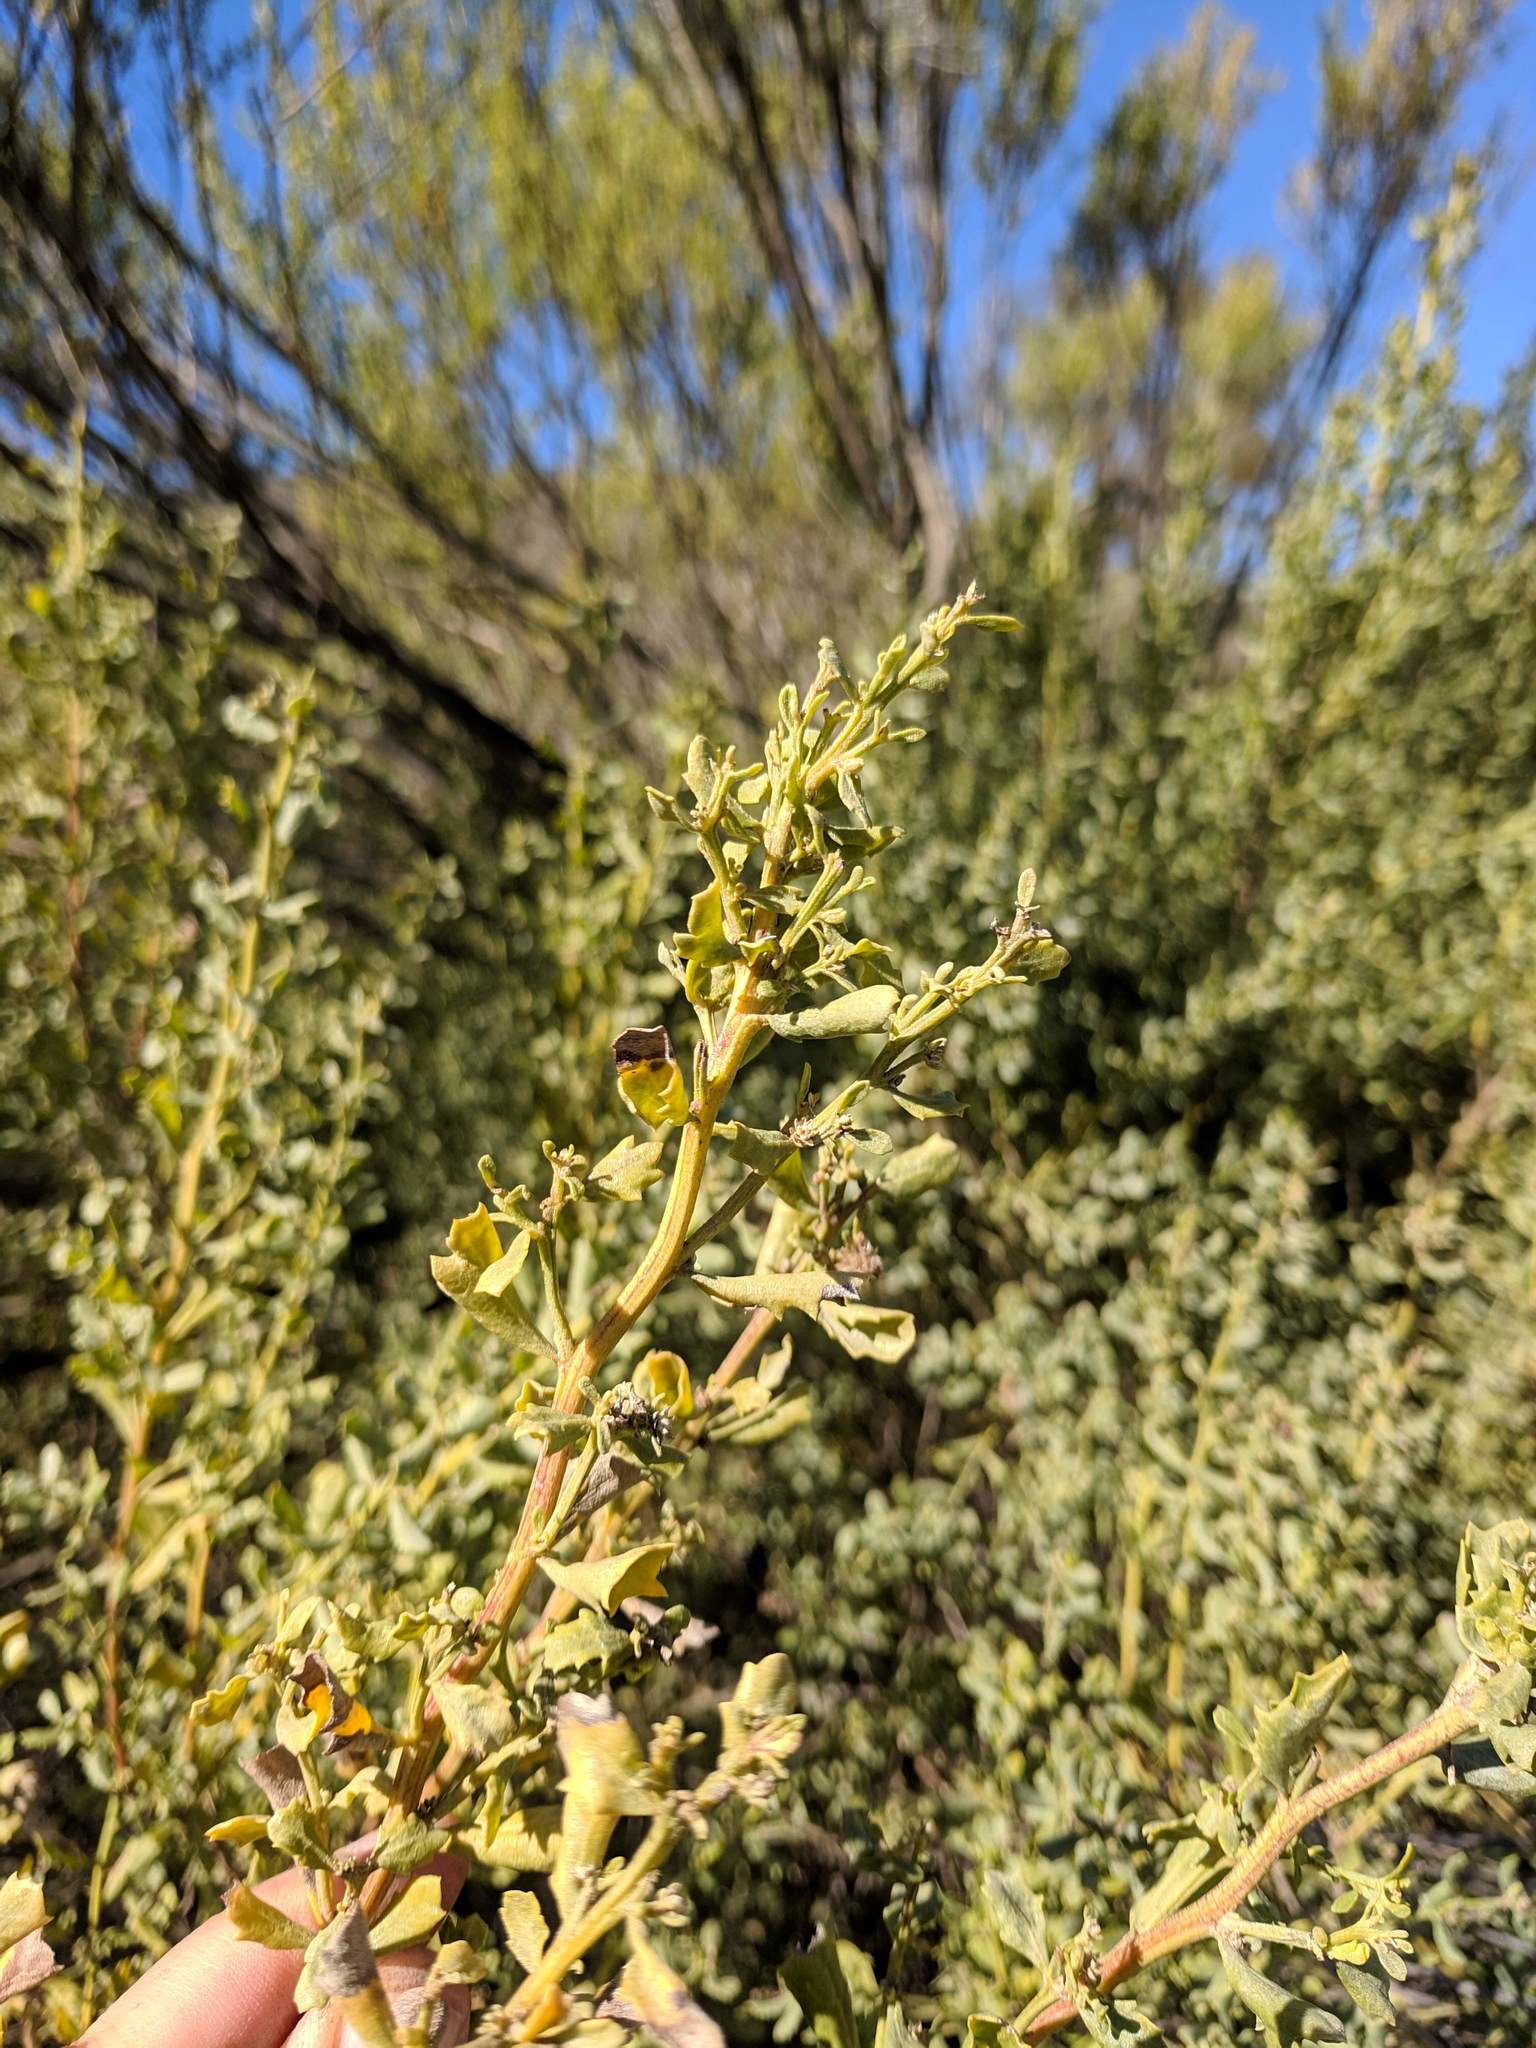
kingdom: Plantae
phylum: Tracheophyta
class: Magnoliopsida
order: Asterales
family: Asteraceae
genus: Baccharis
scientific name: Baccharis pilularis
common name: Coyotebrush
